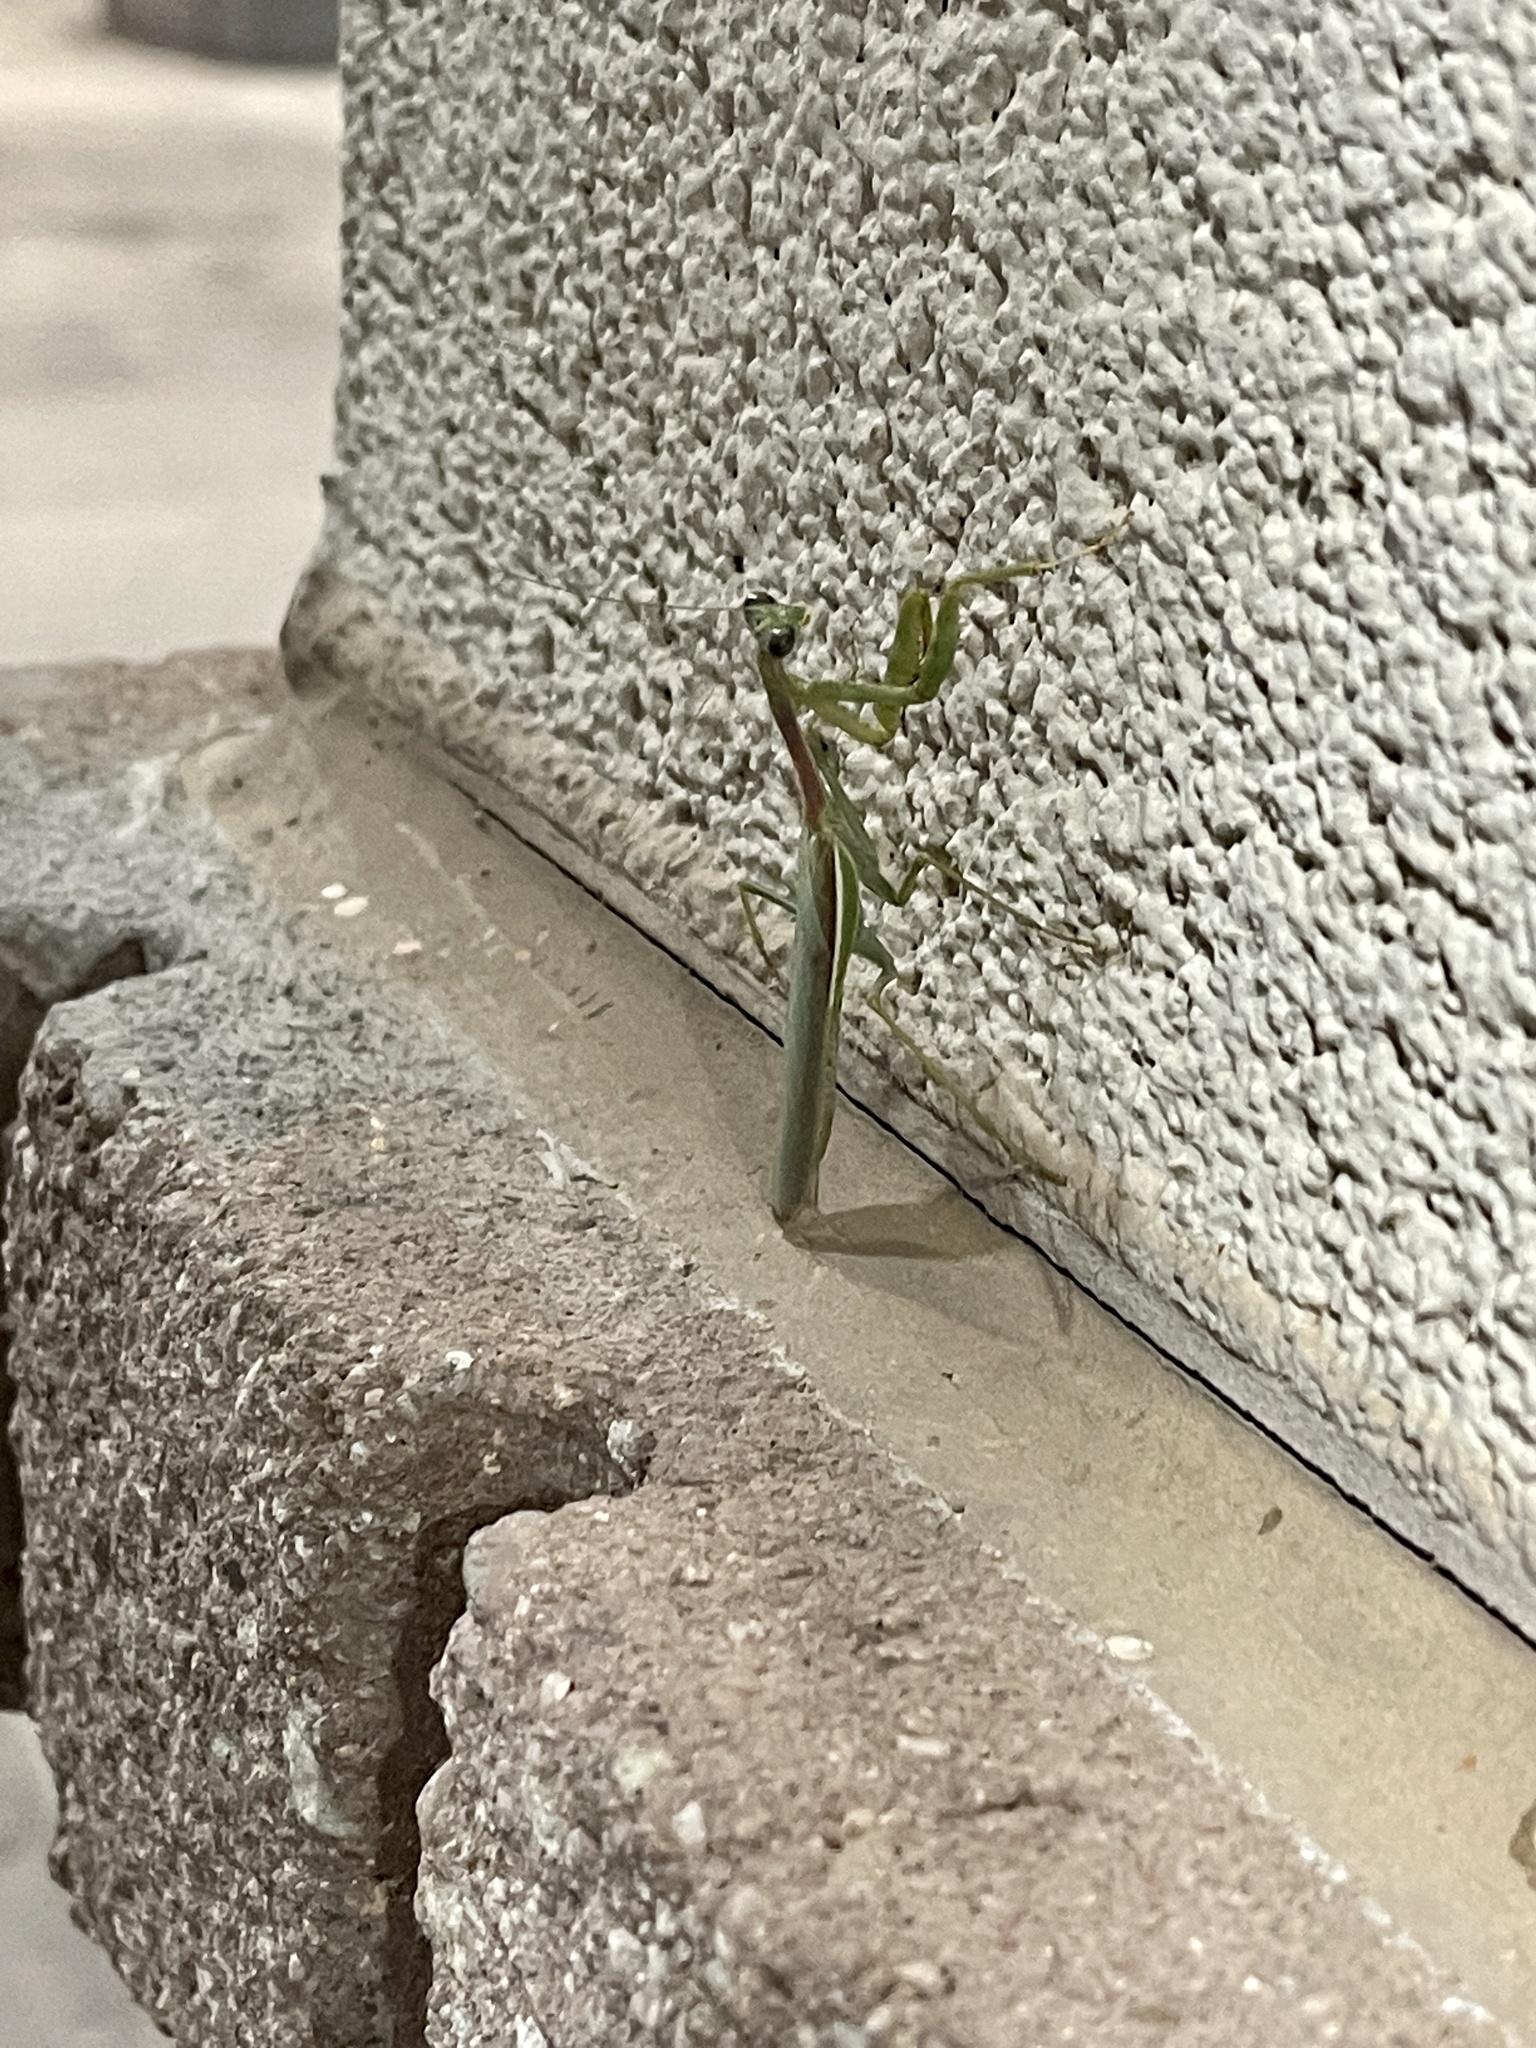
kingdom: Animalia
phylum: Arthropoda
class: Insecta
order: Mantodea
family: Eremiaphilidae
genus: Iris
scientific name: Iris oratoria
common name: Mediterranean mantis
